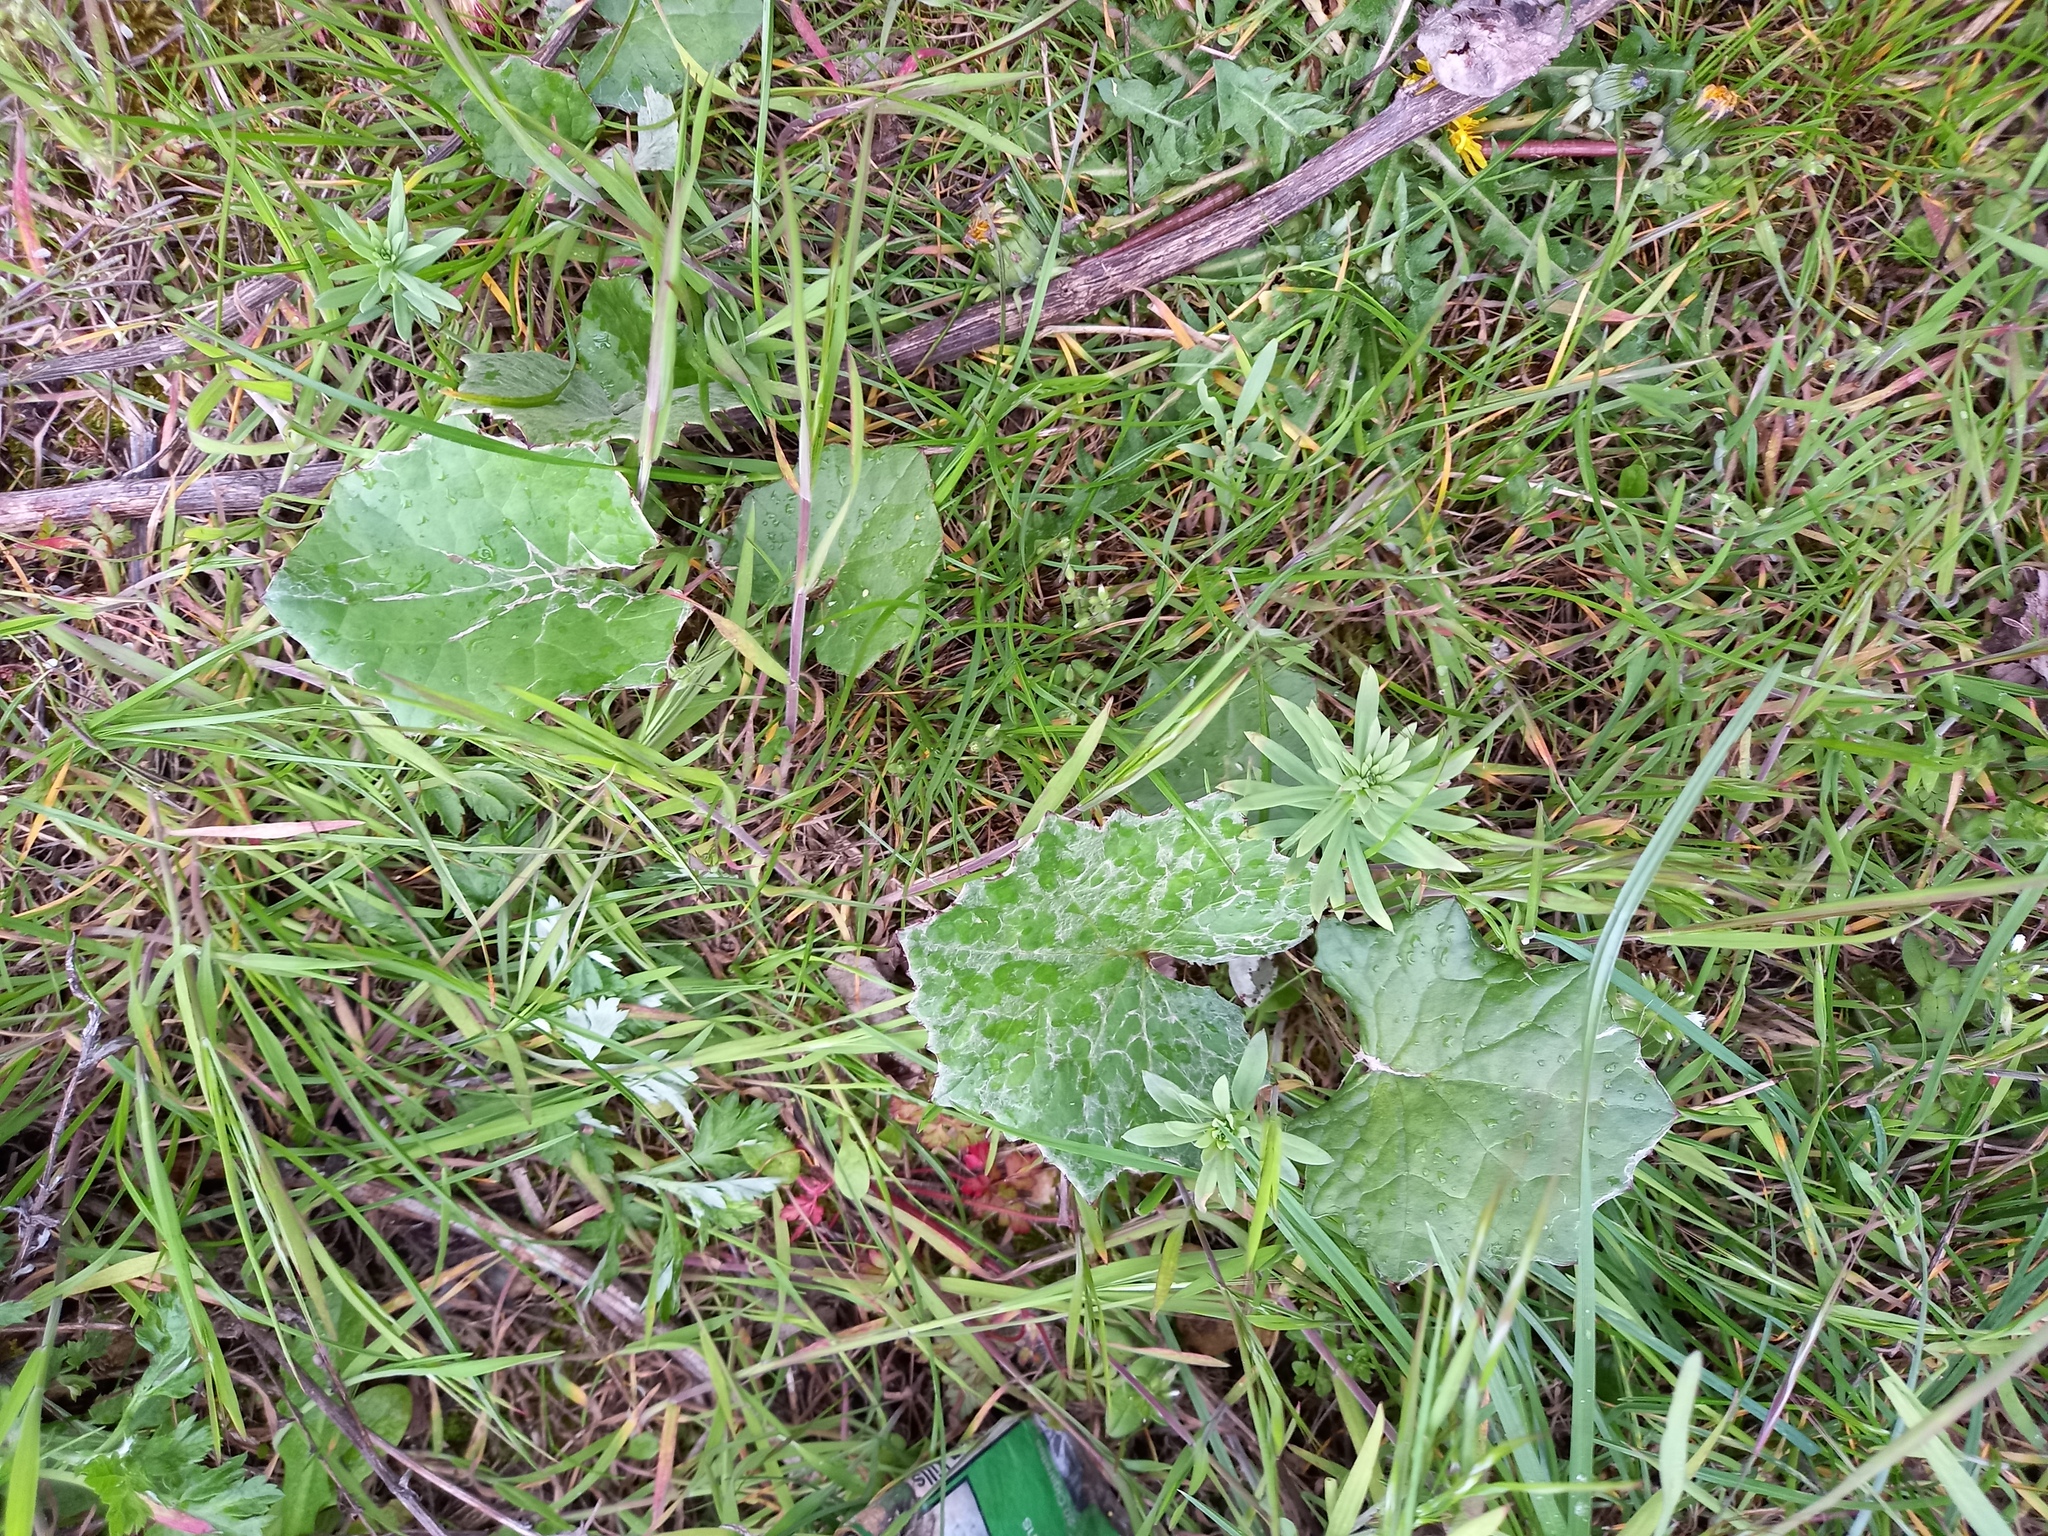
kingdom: Plantae
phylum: Tracheophyta
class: Magnoliopsida
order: Asterales
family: Asteraceae
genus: Tussilago
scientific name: Tussilago farfara
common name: Coltsfoot
